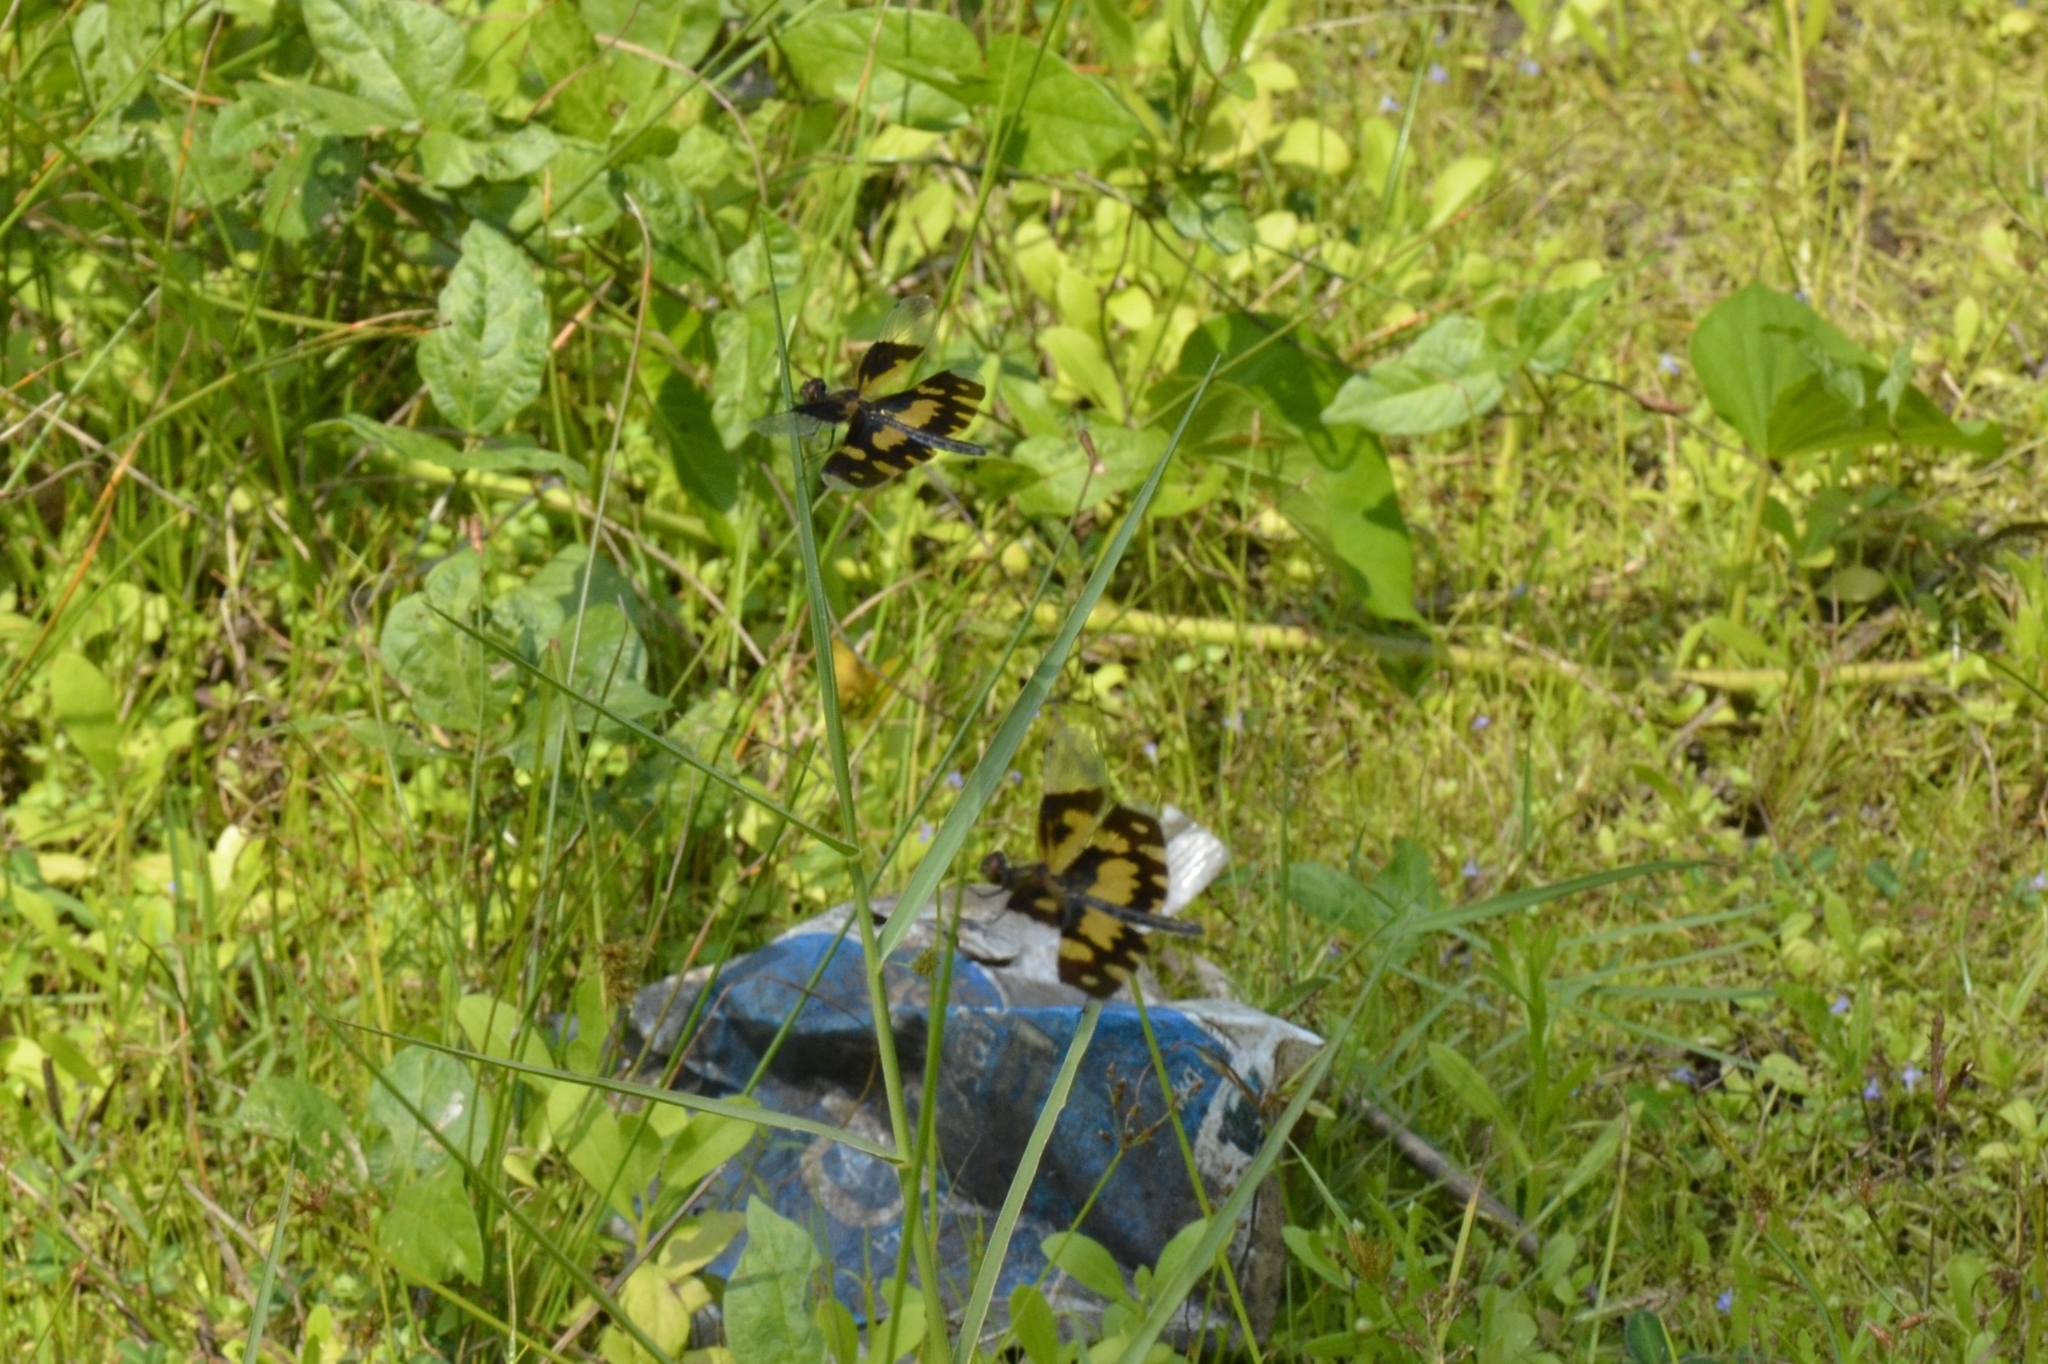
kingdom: Animalia
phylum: Arthropoda
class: Insecta
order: Odonata
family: Libellulidae
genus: Rhyothemis
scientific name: Rhyothemis variegata
